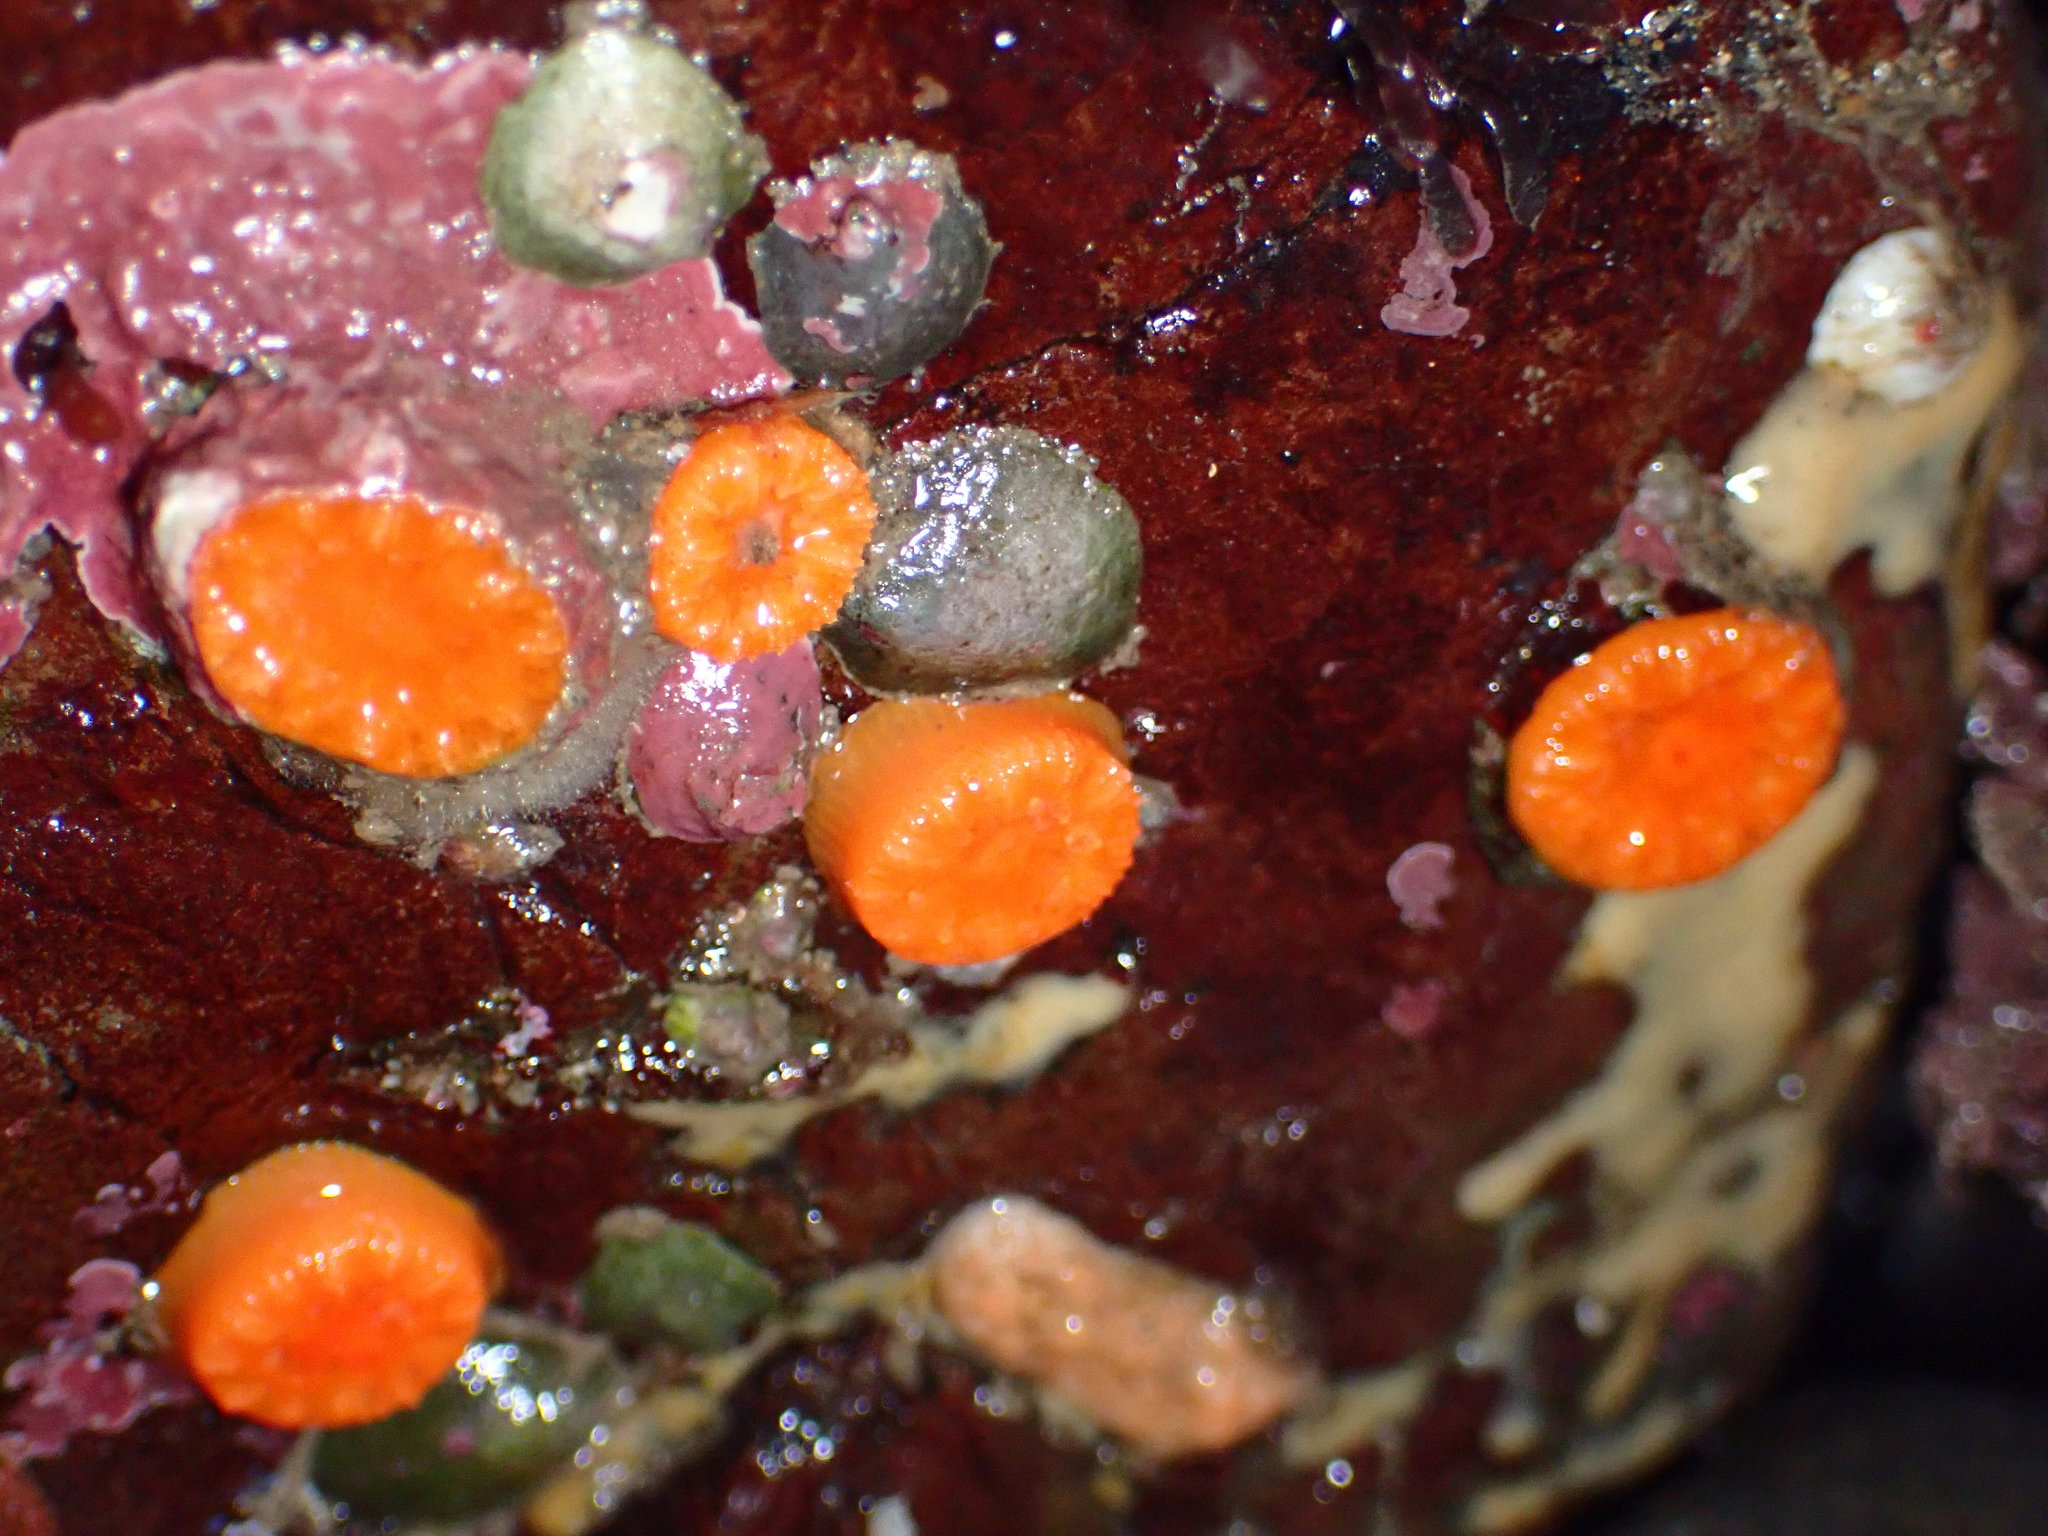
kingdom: Animalia
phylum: Cnidaria
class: Anthozoa
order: Scleractinia
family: Dendrophylliidae
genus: Balanophyllia
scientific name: Balanophyllia elegans
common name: Orange stony coral
